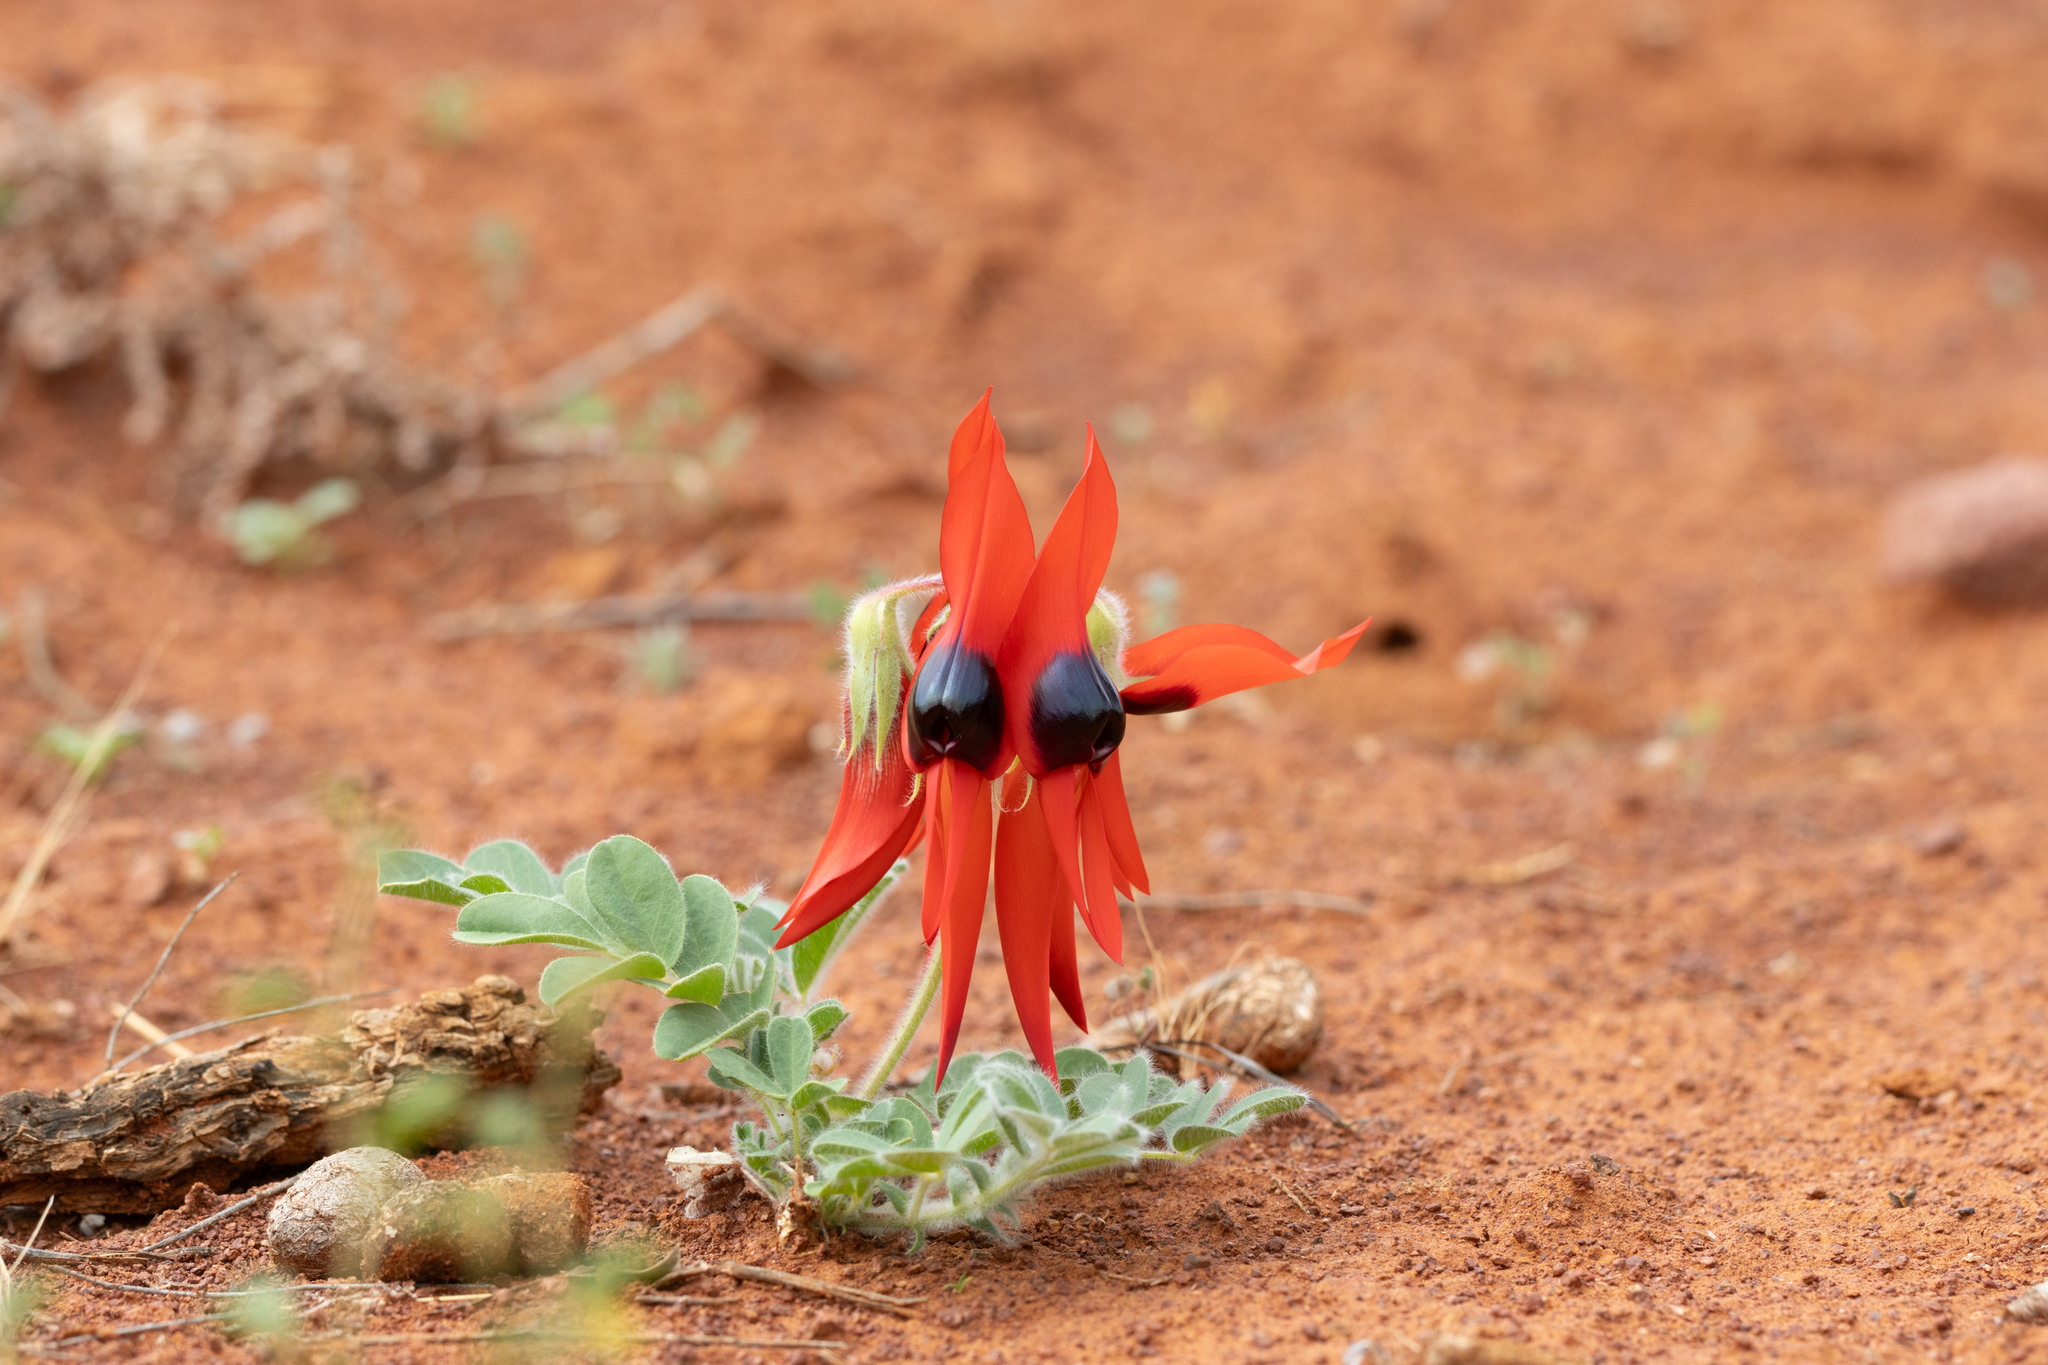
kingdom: Plantae
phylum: Tracheophyta
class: Magnoliopsida
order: Fabales
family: Fabaceae
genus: Swainsona
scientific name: Swainsona formosa
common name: Sturt's desert-pea
